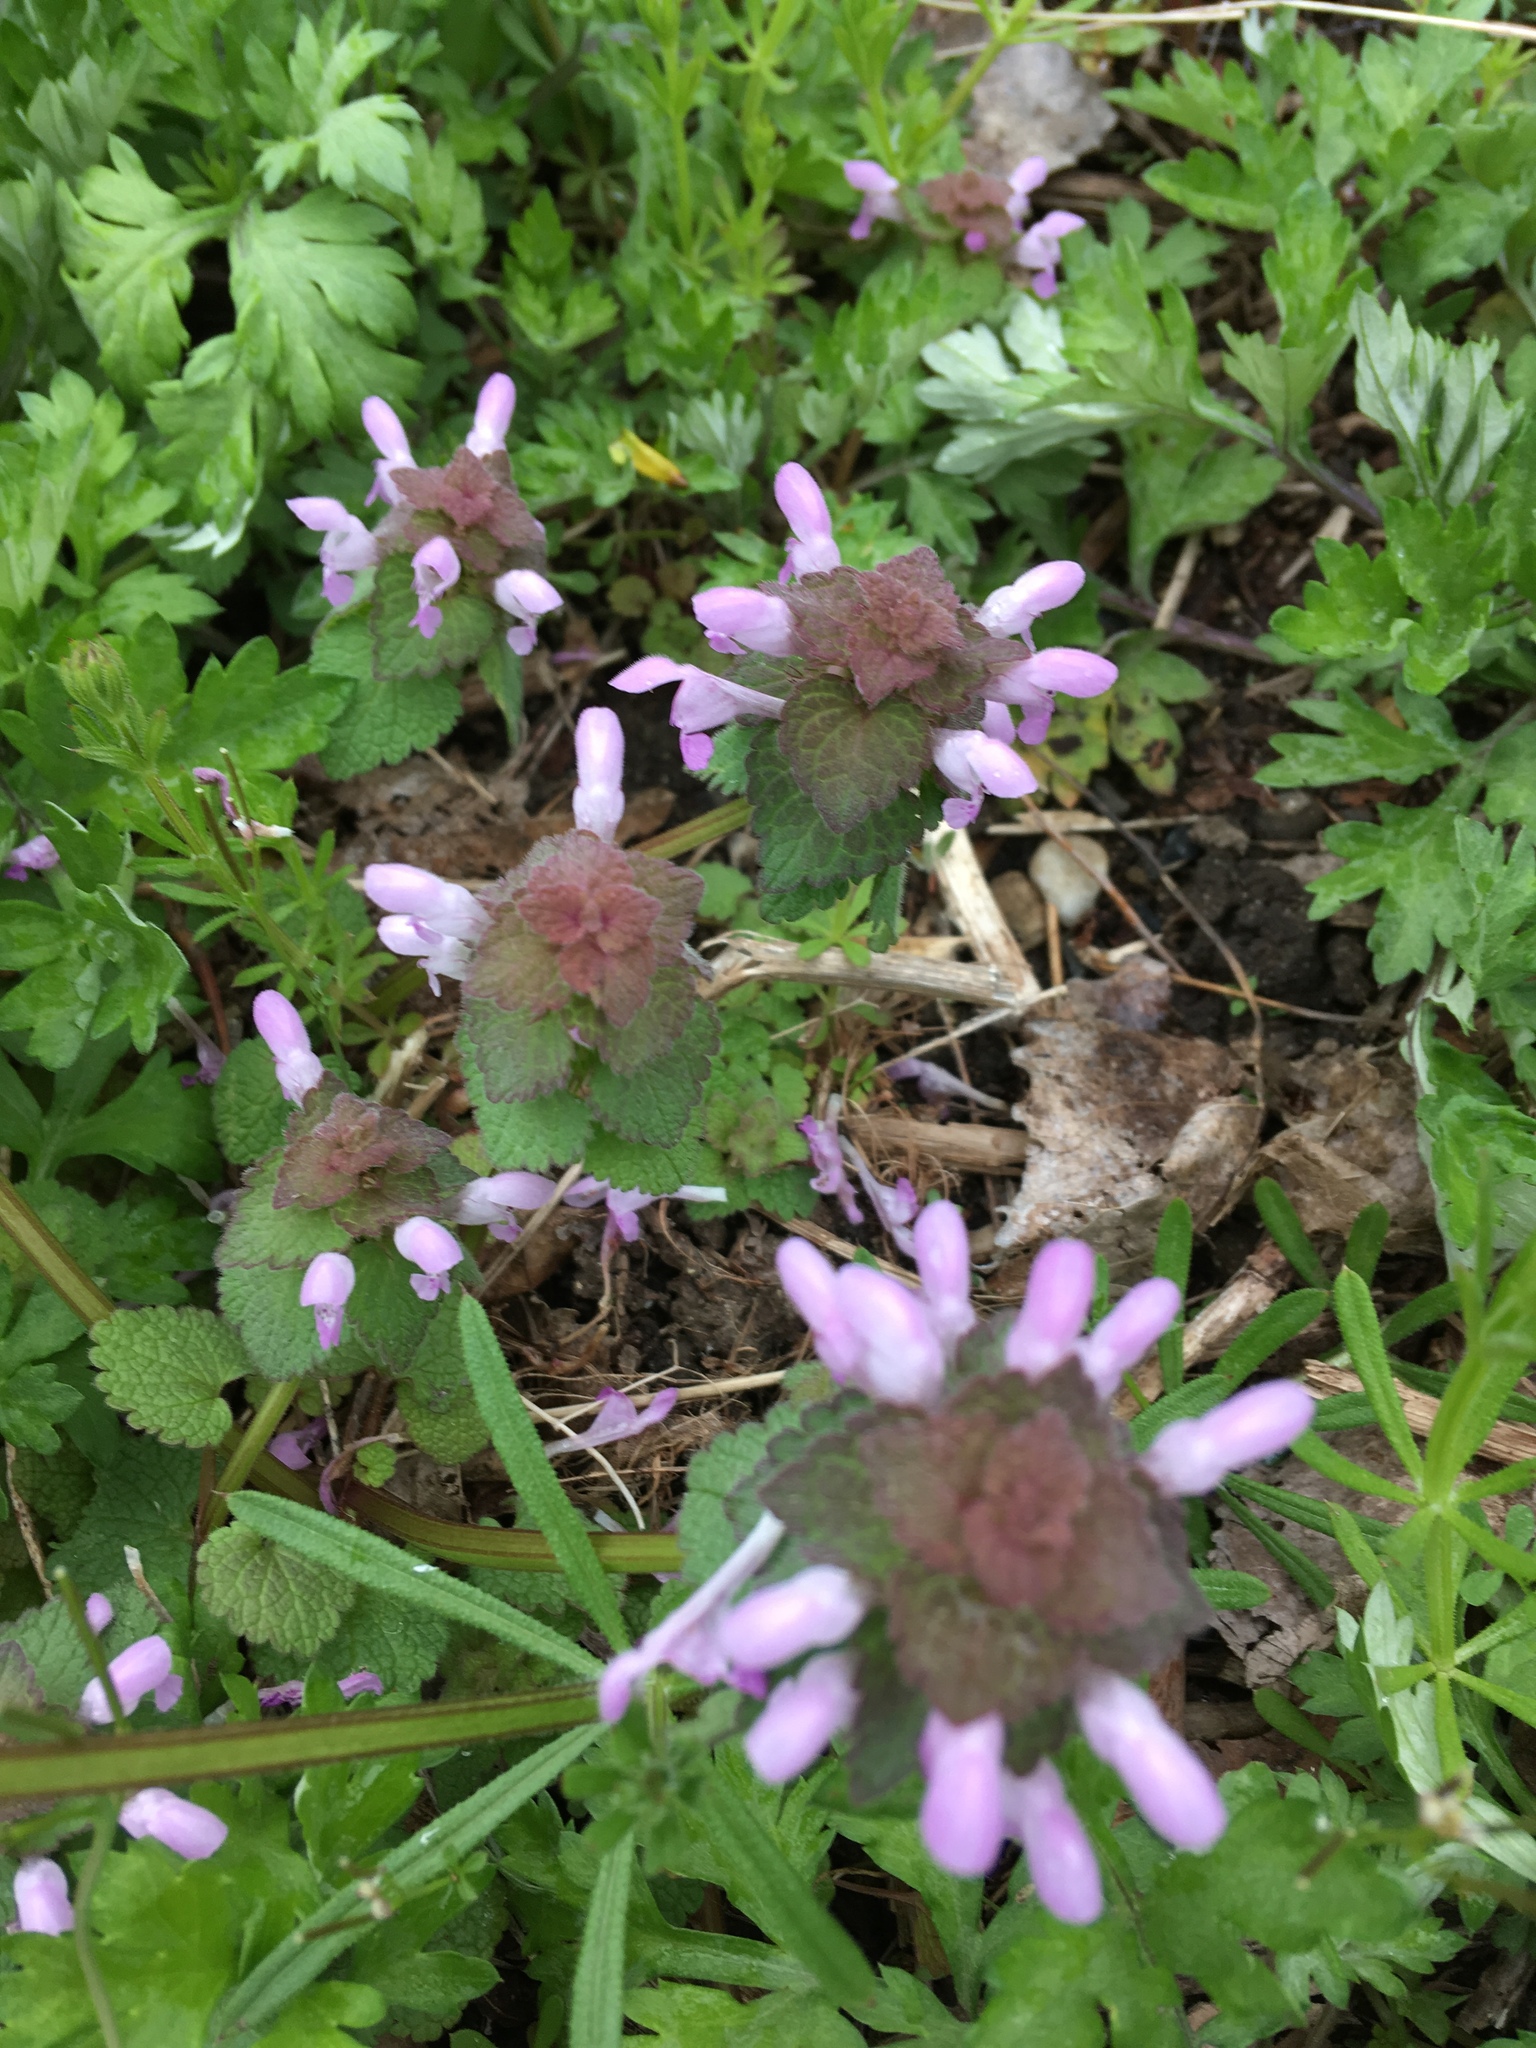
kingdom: Plantae
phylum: Tracheophyta
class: Magnoliopsida
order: Lamiales
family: Lamiaceae
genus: Lamium
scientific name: Lamium purpureum
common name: Red dead-nettle
